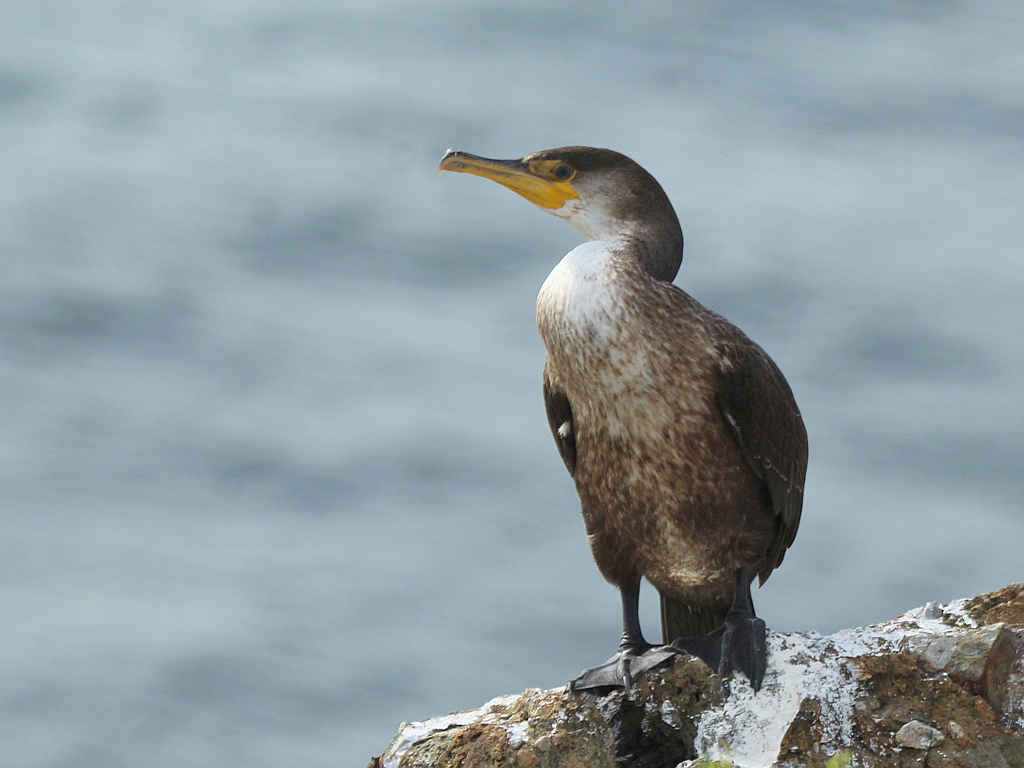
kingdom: Animalia
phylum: Chordata
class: Aves
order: Suliformes
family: Phalacrocoracidae
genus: Phalacrocorax
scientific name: Phalacrocorax capillatus
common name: Japanese cormorant
